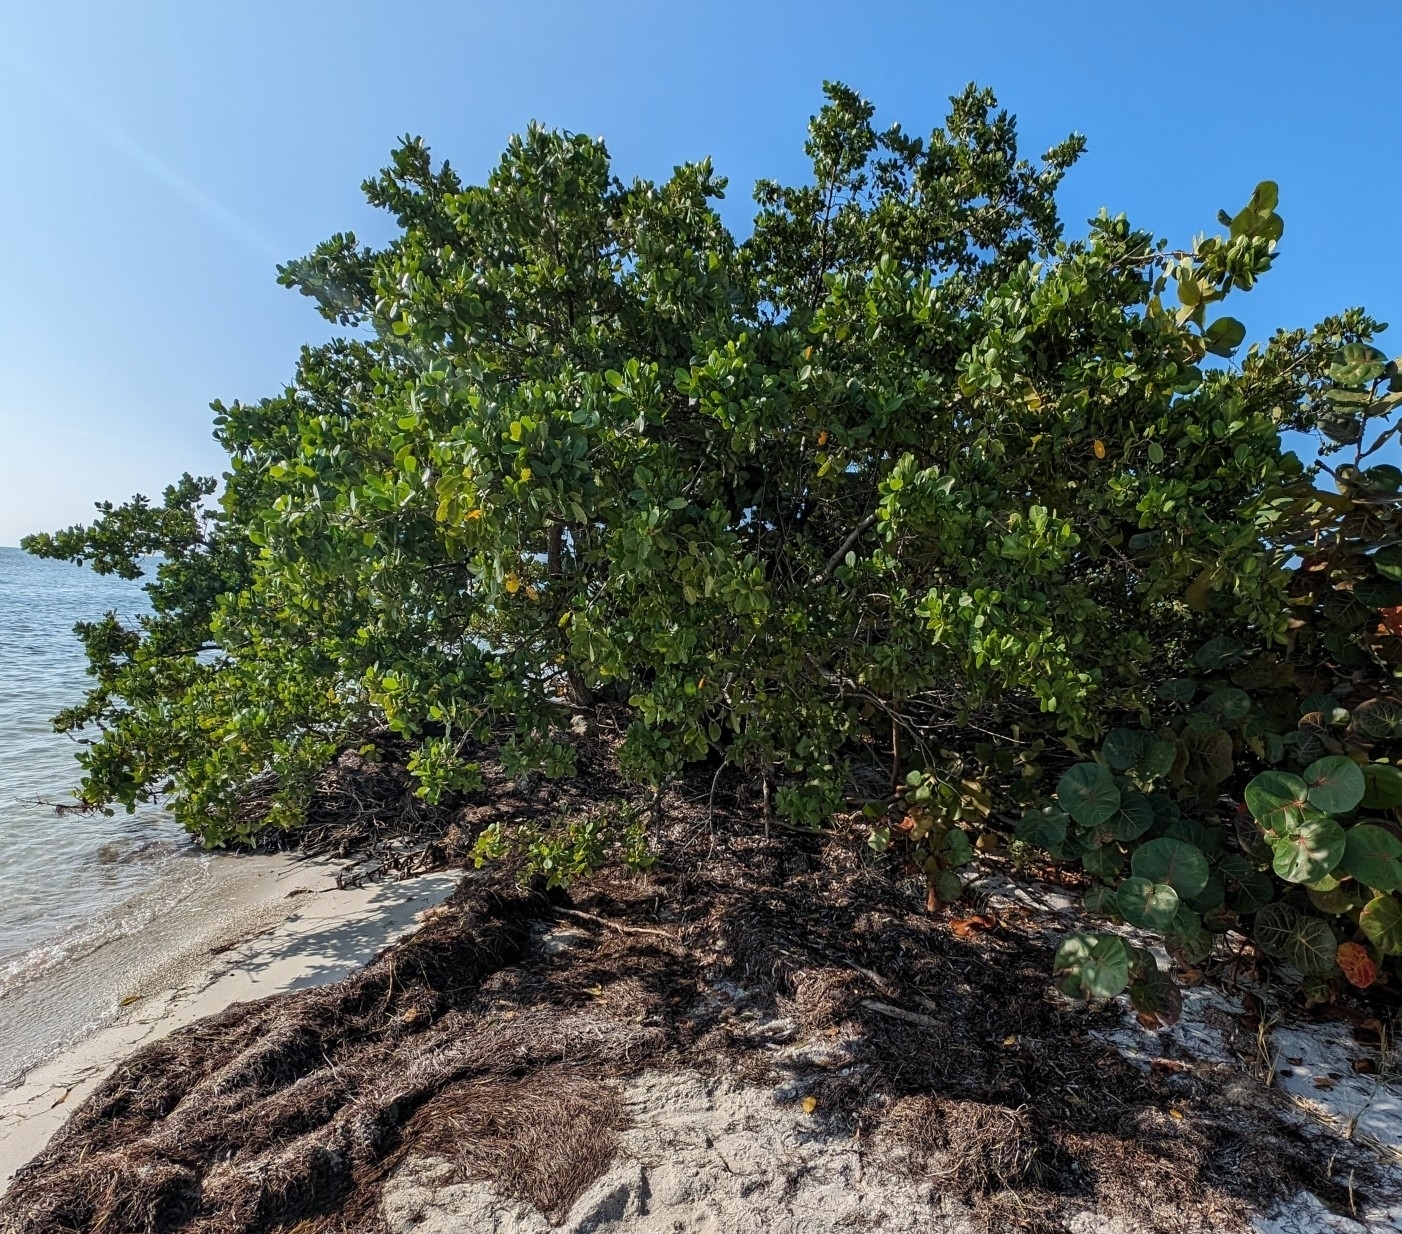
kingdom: Plantae
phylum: Tracheophyta
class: Magnoliopsida
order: Myrtales
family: Combretaceae
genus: Laguncularia
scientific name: Laguncularia racemosa
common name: White mangrove
